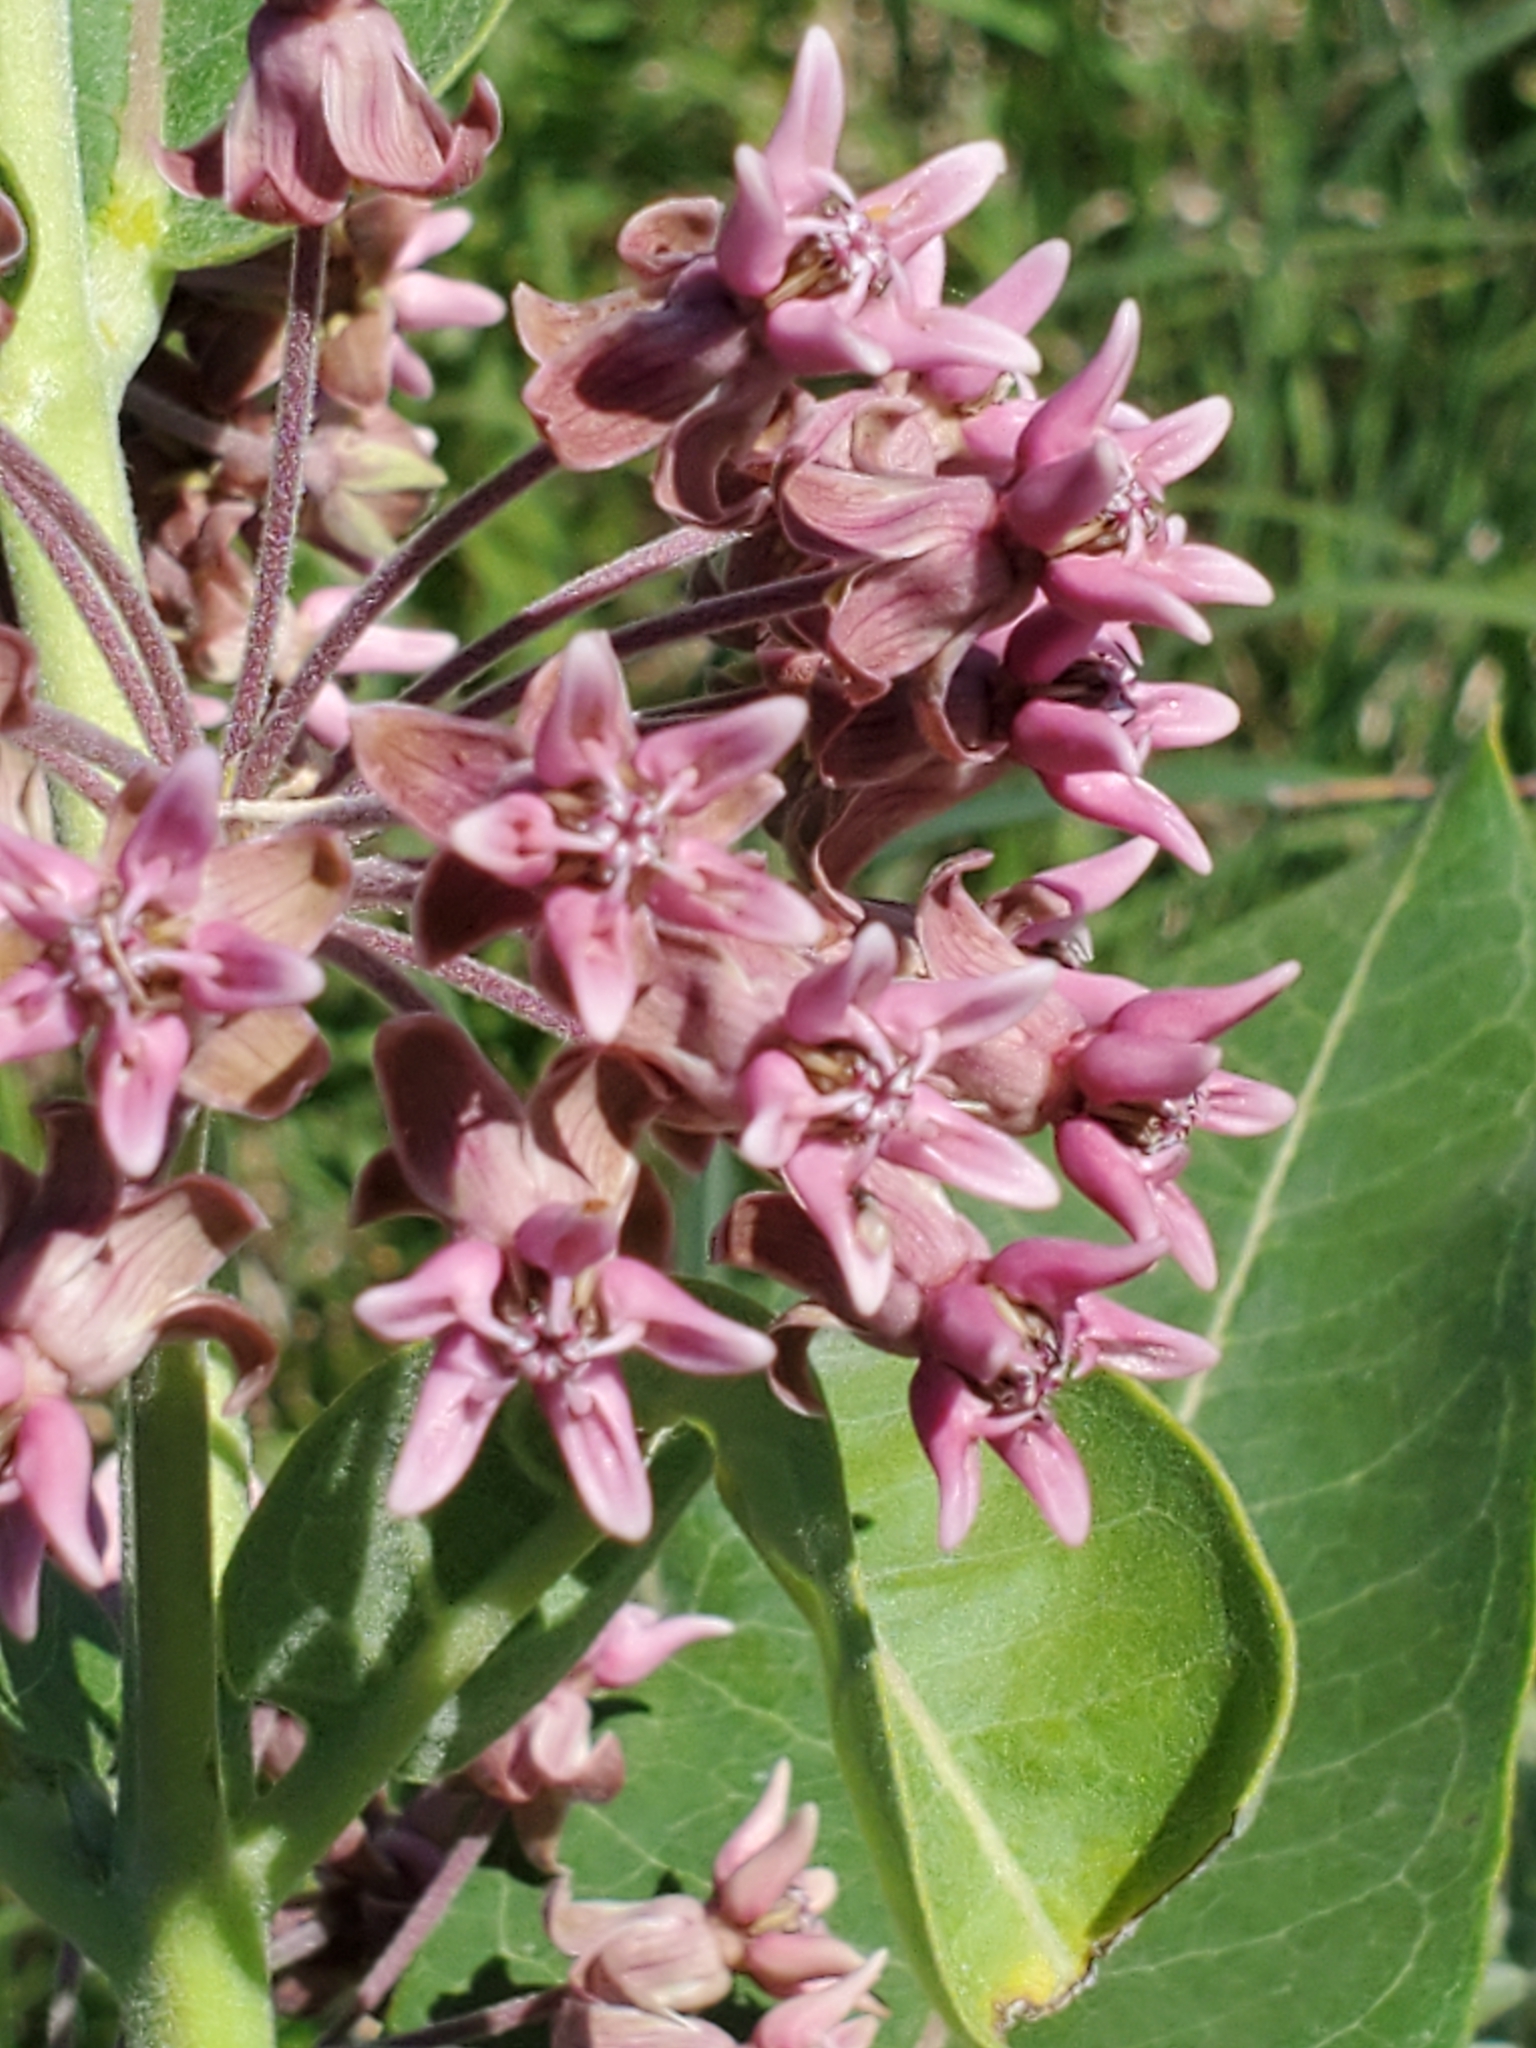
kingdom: Plantae
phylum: Tracheophyta
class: Magnoliopsida
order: Gentianales
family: Apocynaceae
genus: Asclepias
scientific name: Asclepias syriaca
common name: Common milkweed
